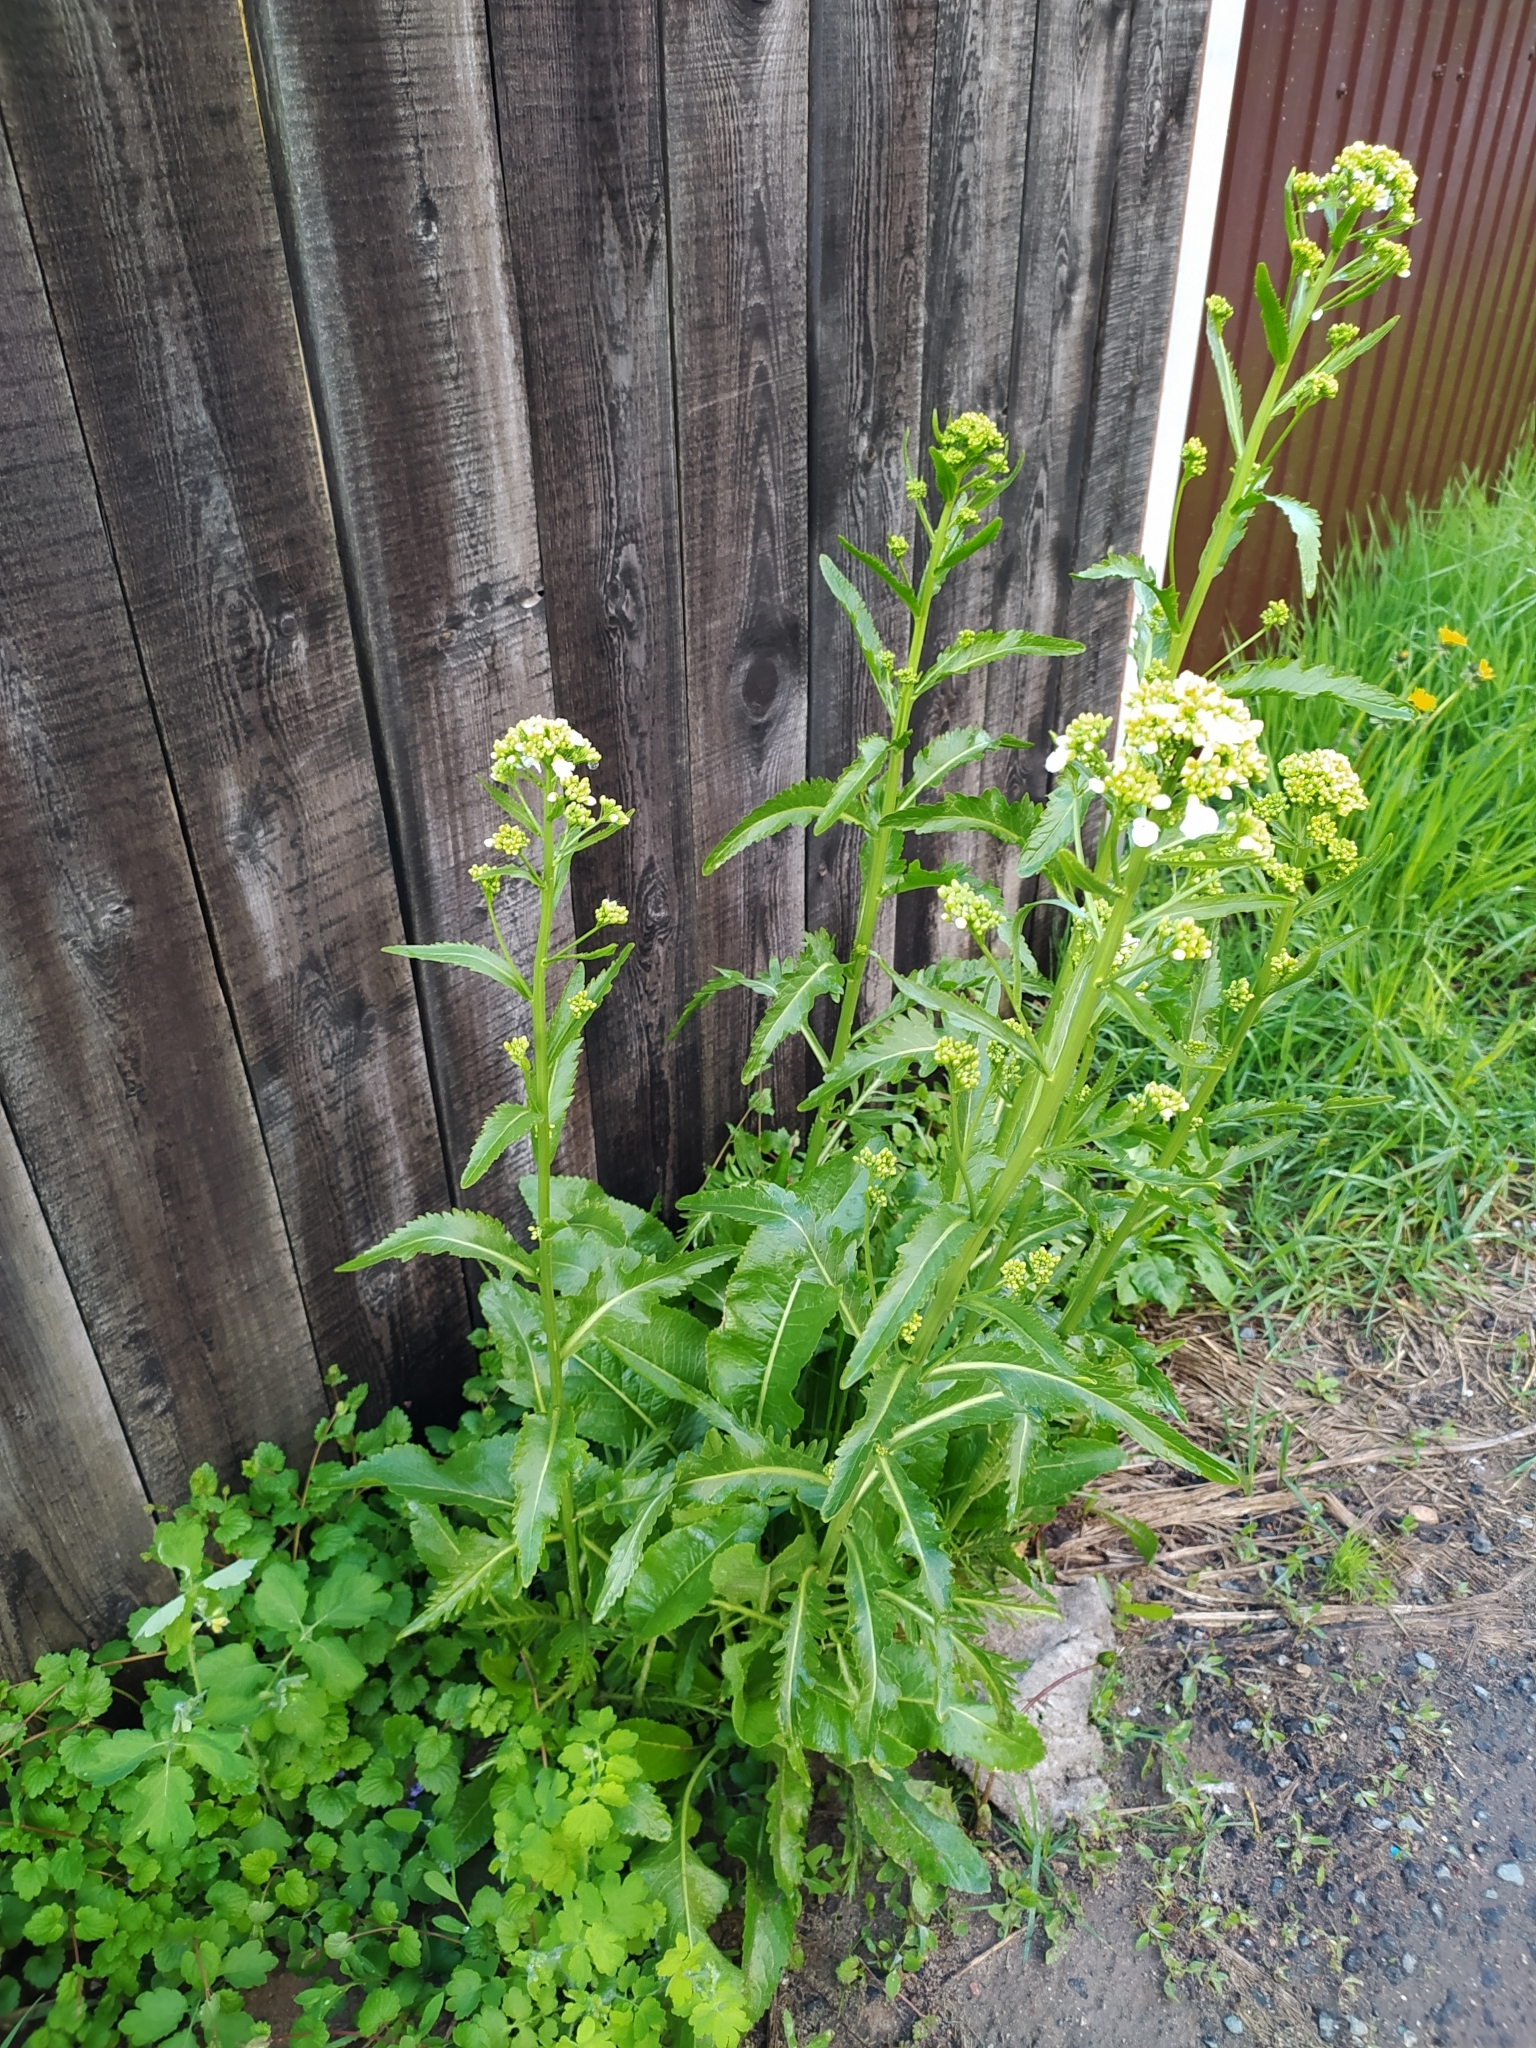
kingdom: Plantae
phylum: Tracheophyta
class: Magnoliopsida
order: Brassicales
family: Brassicaceae
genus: Armoracia
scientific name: Armoracia rusticana
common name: Horseradish
